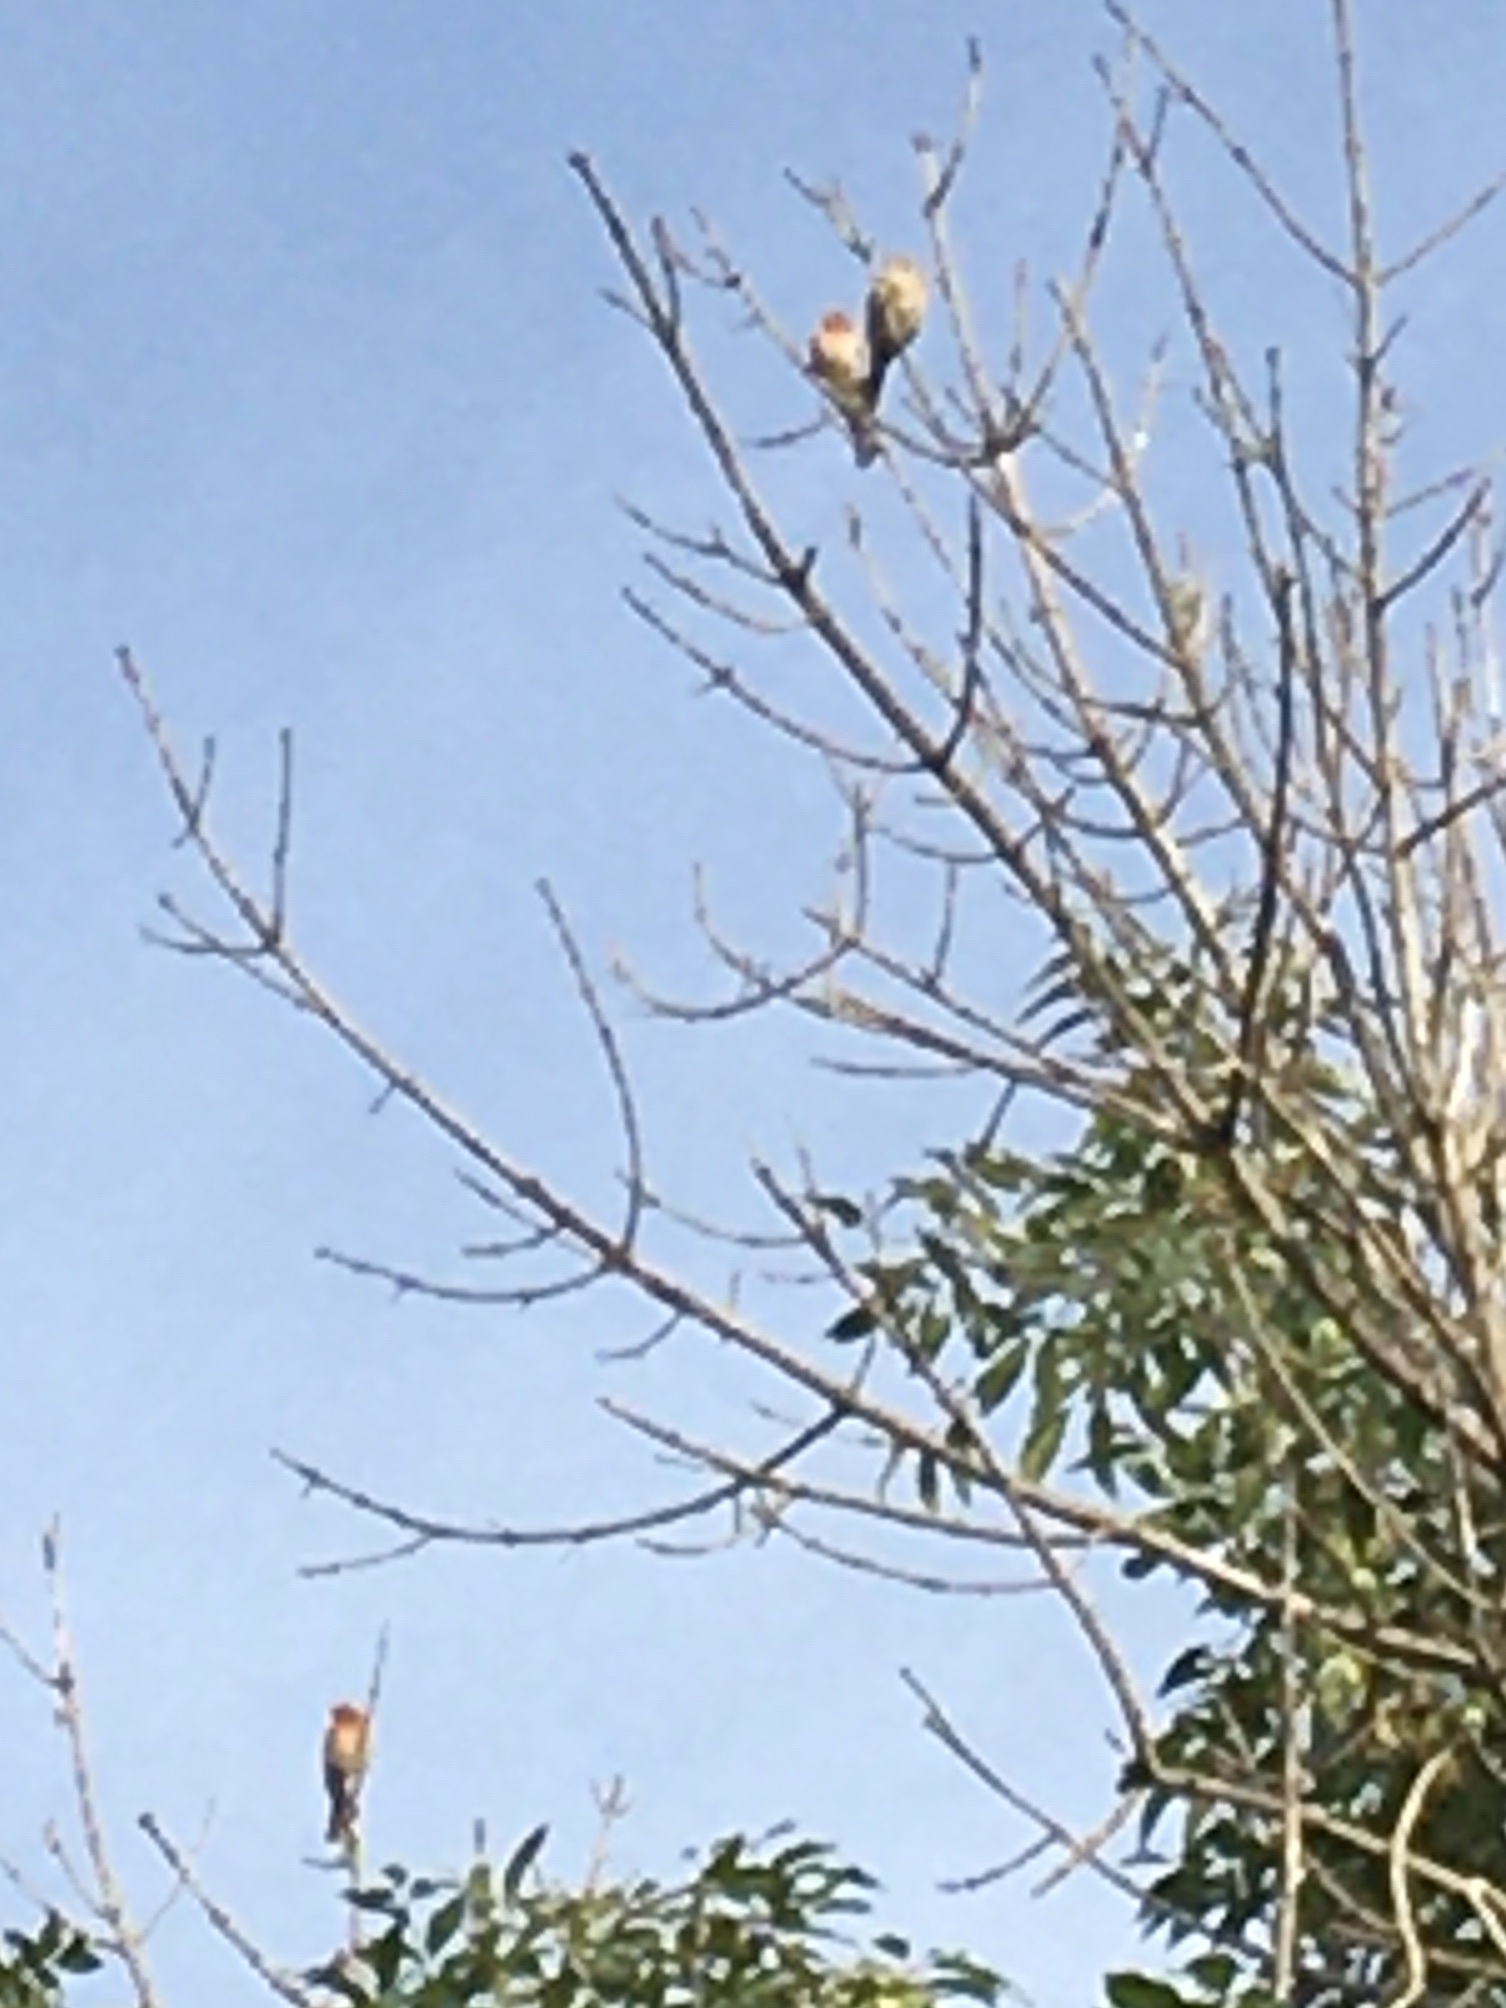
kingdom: Animalia
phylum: Chordata
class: Aves
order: Passeriformes
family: Fringillidae
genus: Haemorhous
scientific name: Haemorhous mexicanus
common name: House finch
